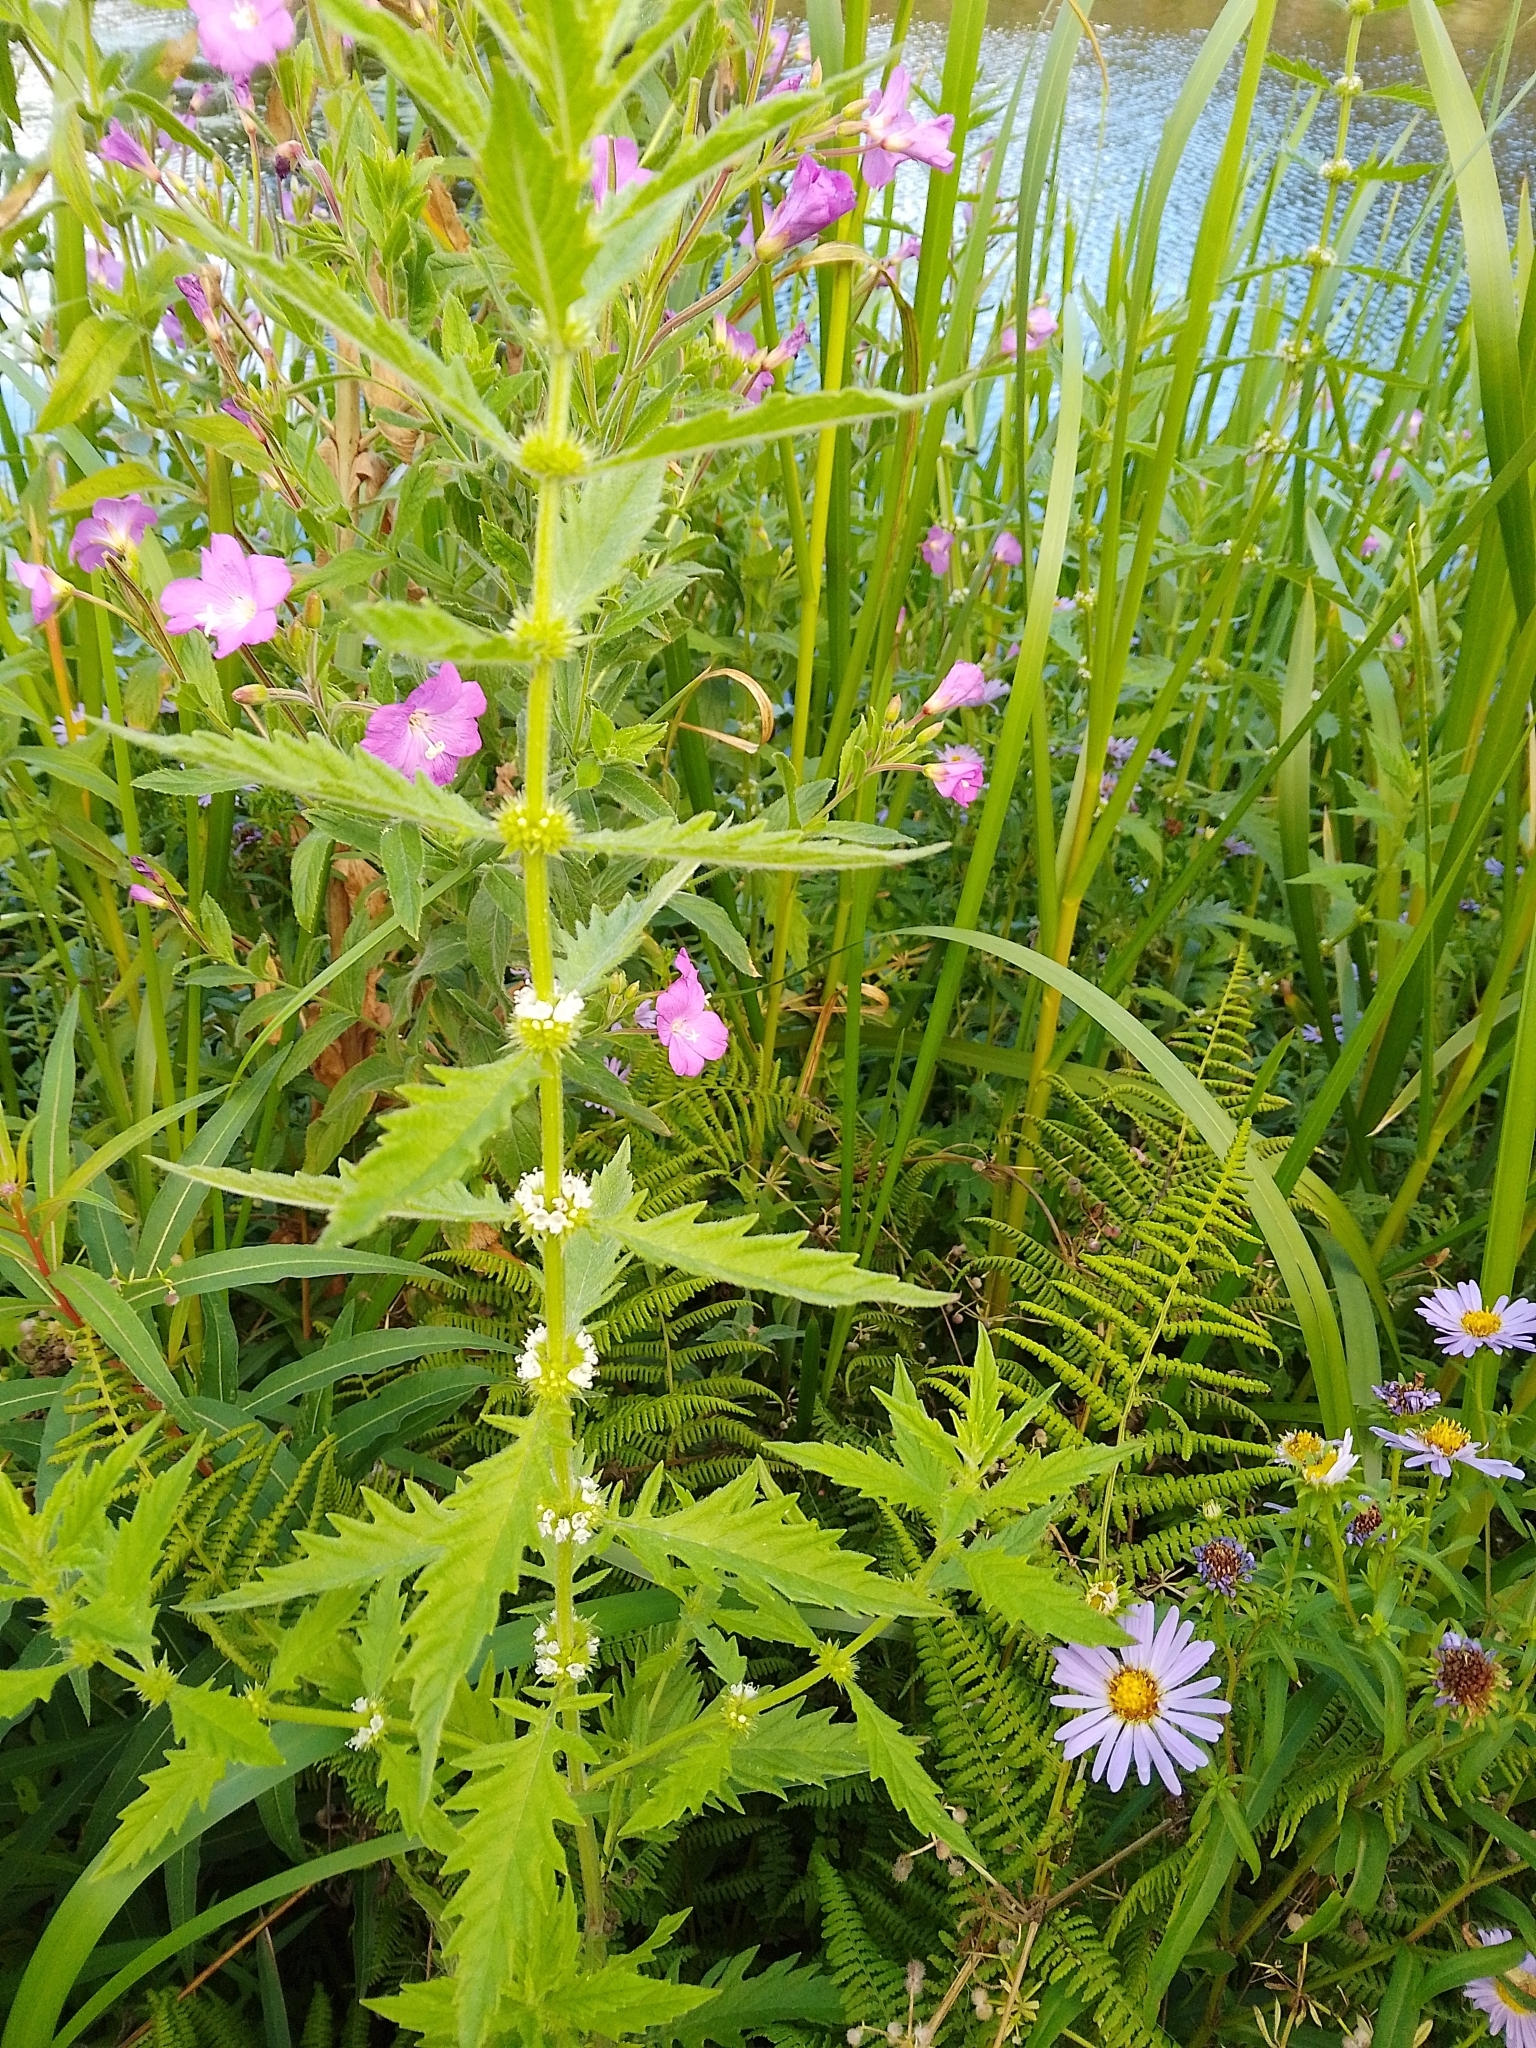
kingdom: Plantae
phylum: Tracheophyta
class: Magnoliopsida
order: Lamiales
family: Lamiaceae
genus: Lycopus
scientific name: Lycopus europaeus
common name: European bugleweed
